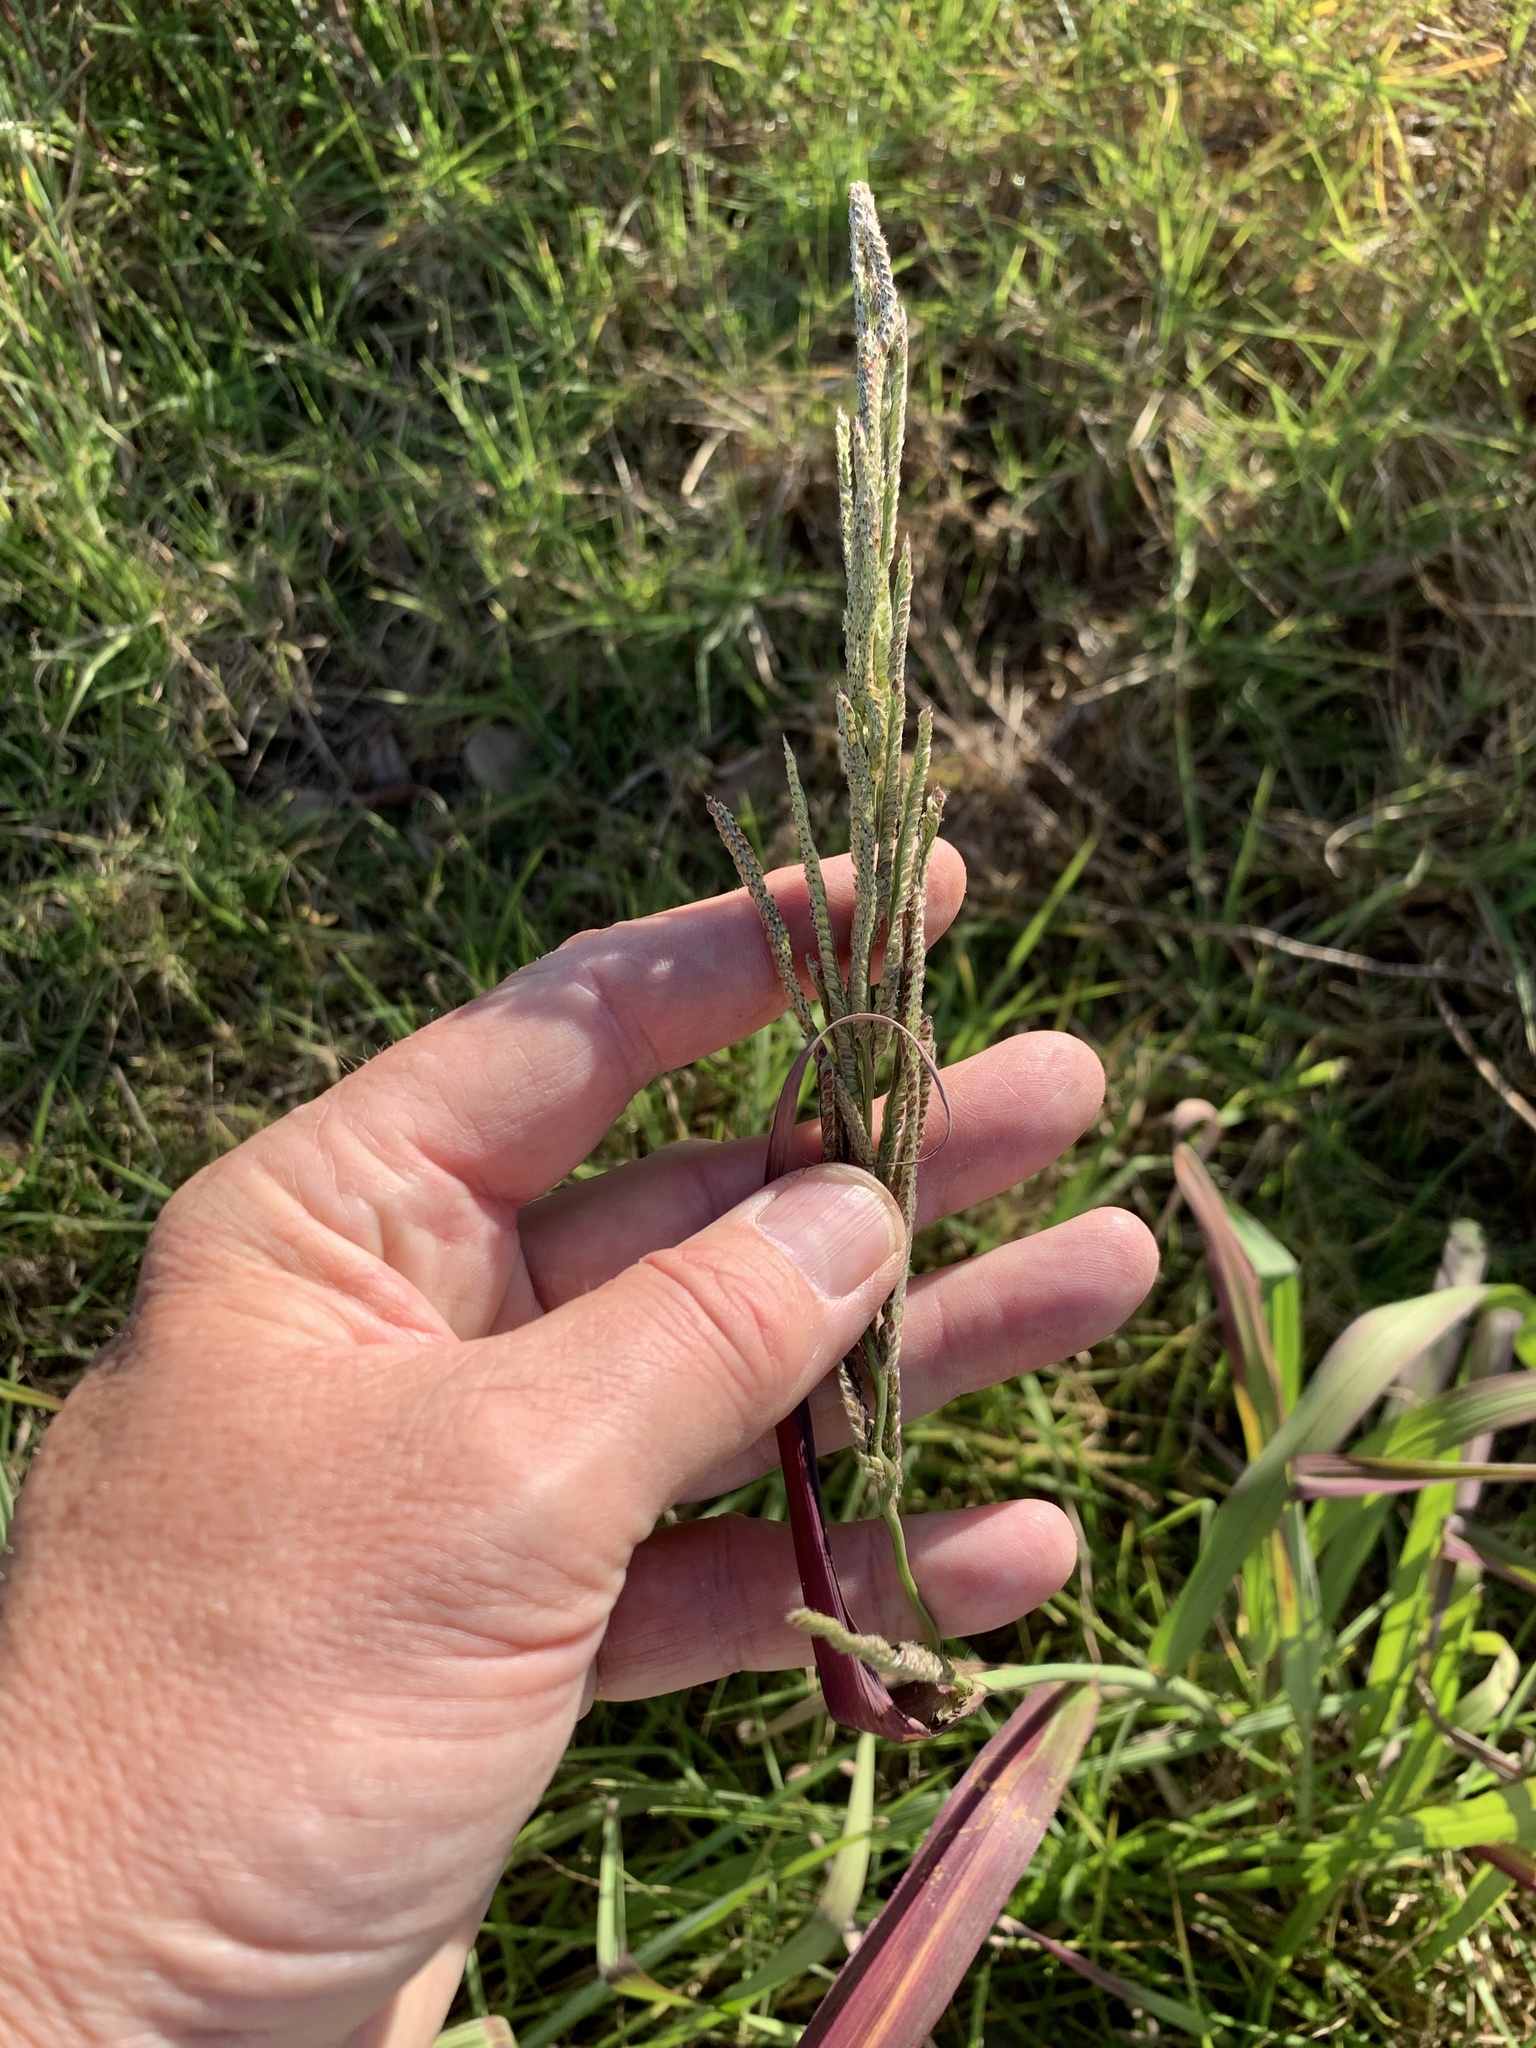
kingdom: Plantae
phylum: Tracheophyta
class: Liliopsida
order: Poales
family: Poaceae
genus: Paspalum
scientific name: Paspalum urvillei
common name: Vasey's grass
